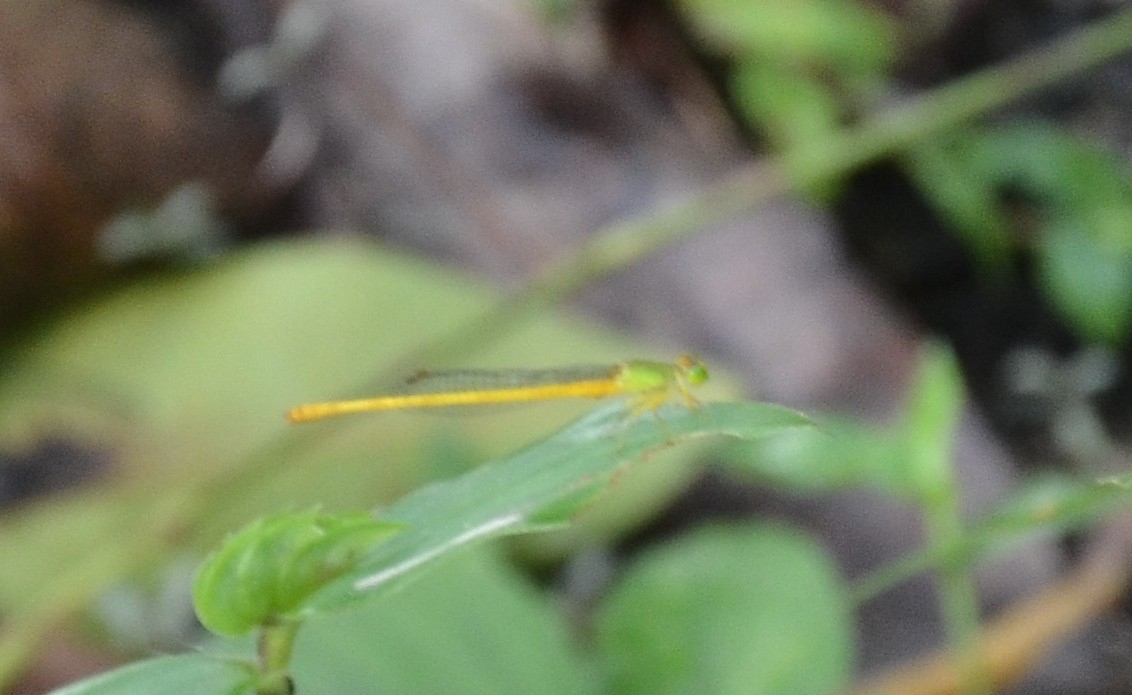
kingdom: Animalia
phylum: Arthropoda
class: Insecta
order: Odonata
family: Coenagrionidae
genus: Ceriagrion
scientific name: Ceriagrion coromandelianum
